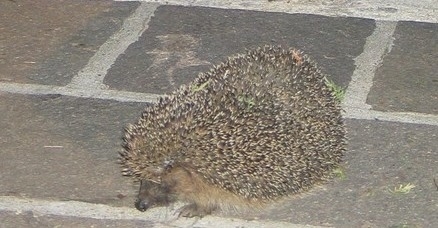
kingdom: Animalia
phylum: Chordata
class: Mammalia
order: Erinaceomorpha
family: Erinaceidae
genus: Erinaceus
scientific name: Erinaceus europaeus
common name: West european hedgehog
